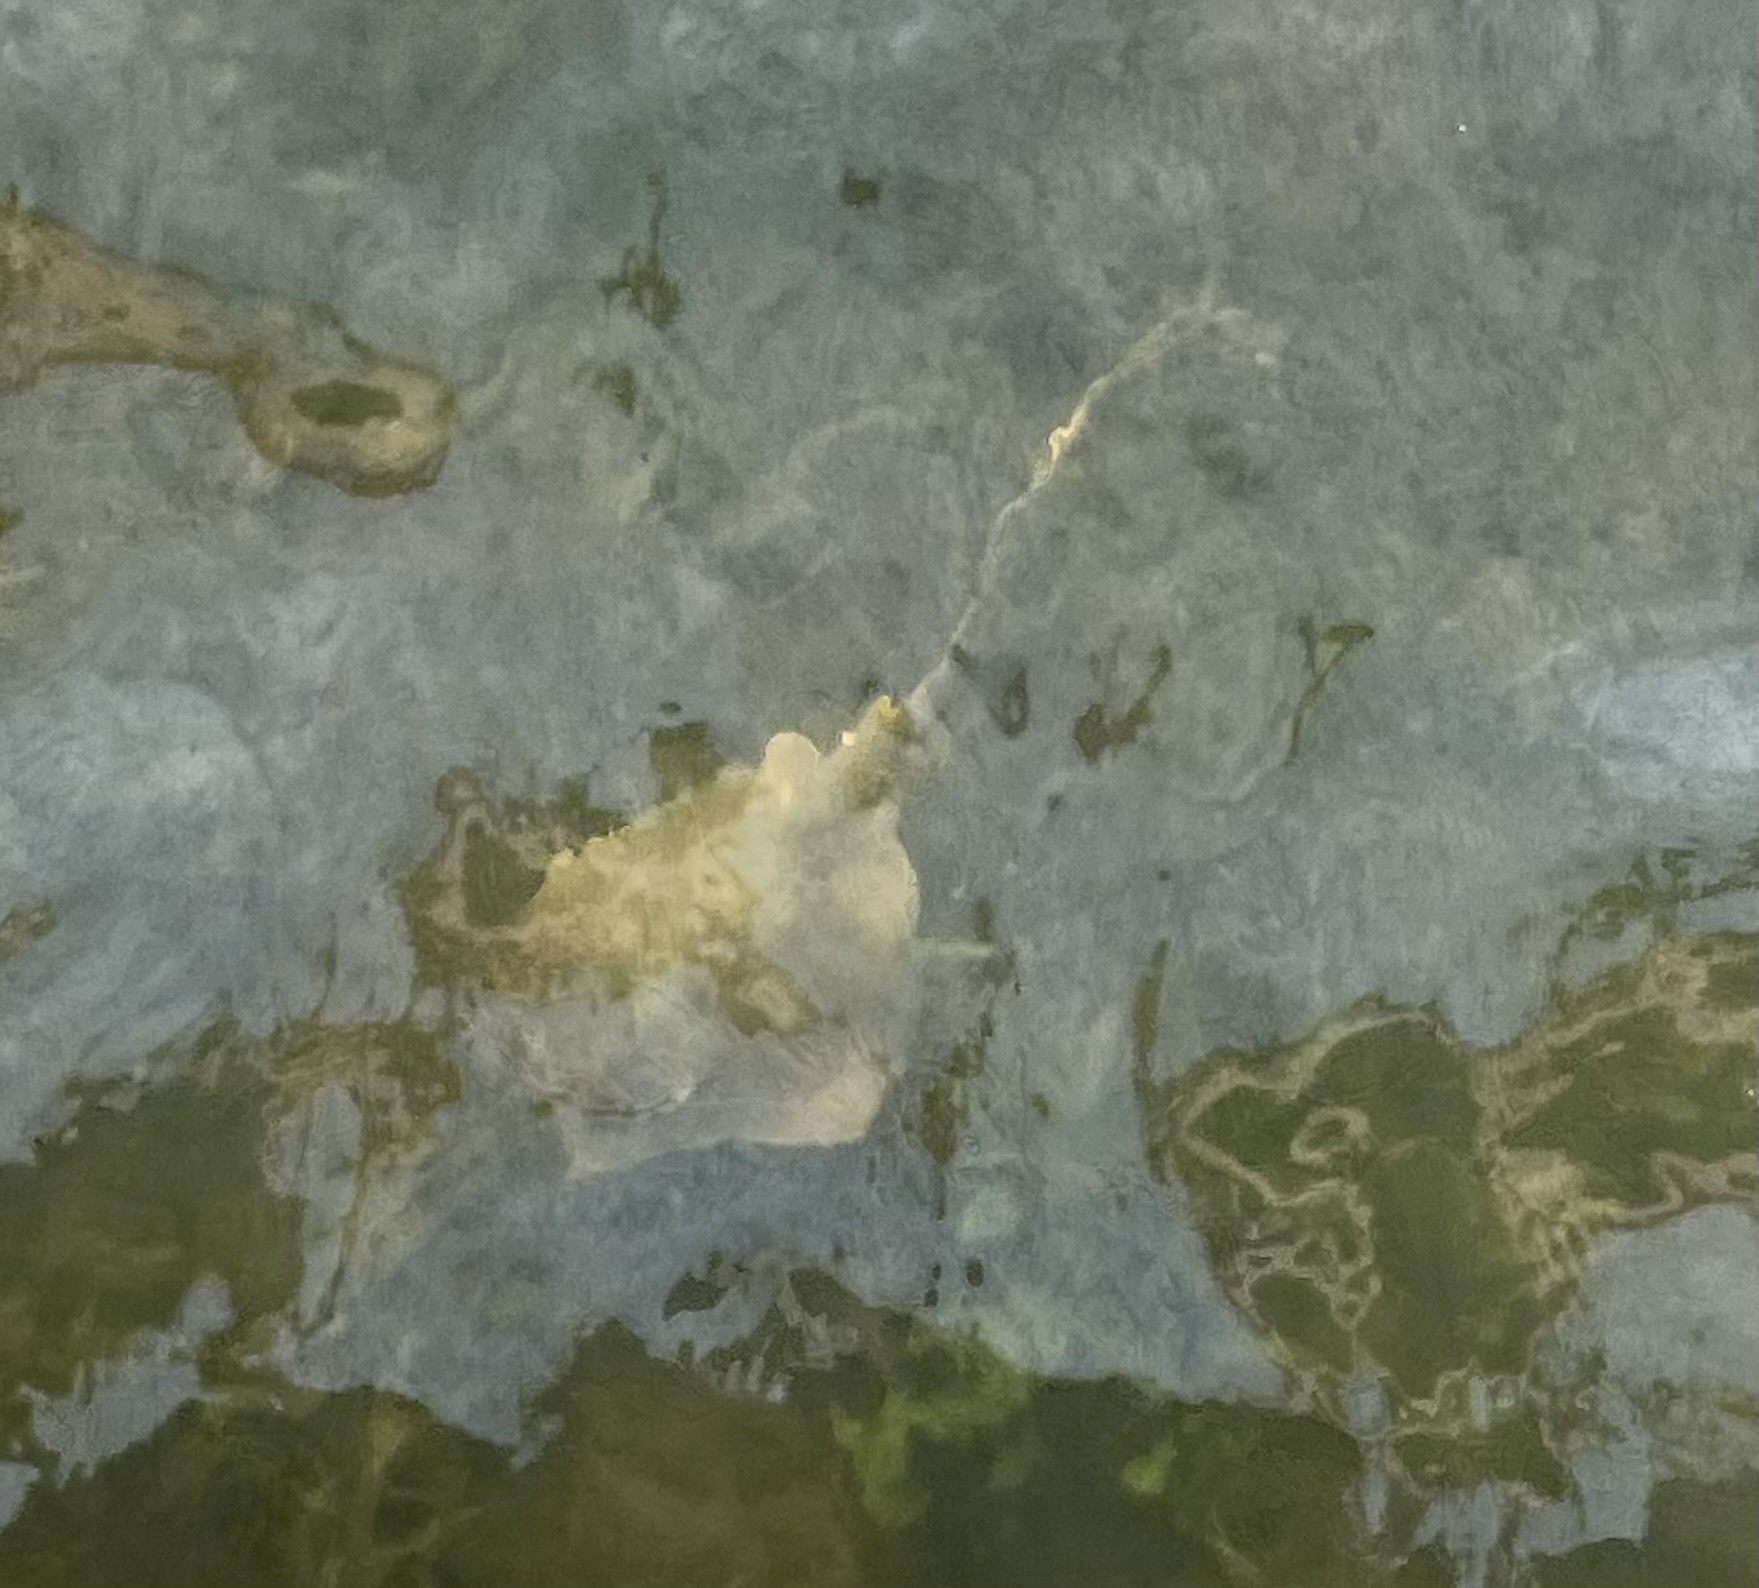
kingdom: Animalia
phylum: Chordata
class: Elasmobranchii
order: Myliobatiformes
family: Dasyatidae
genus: Hypanus
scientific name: Hypanus sabinus
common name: Atlantic stingray
